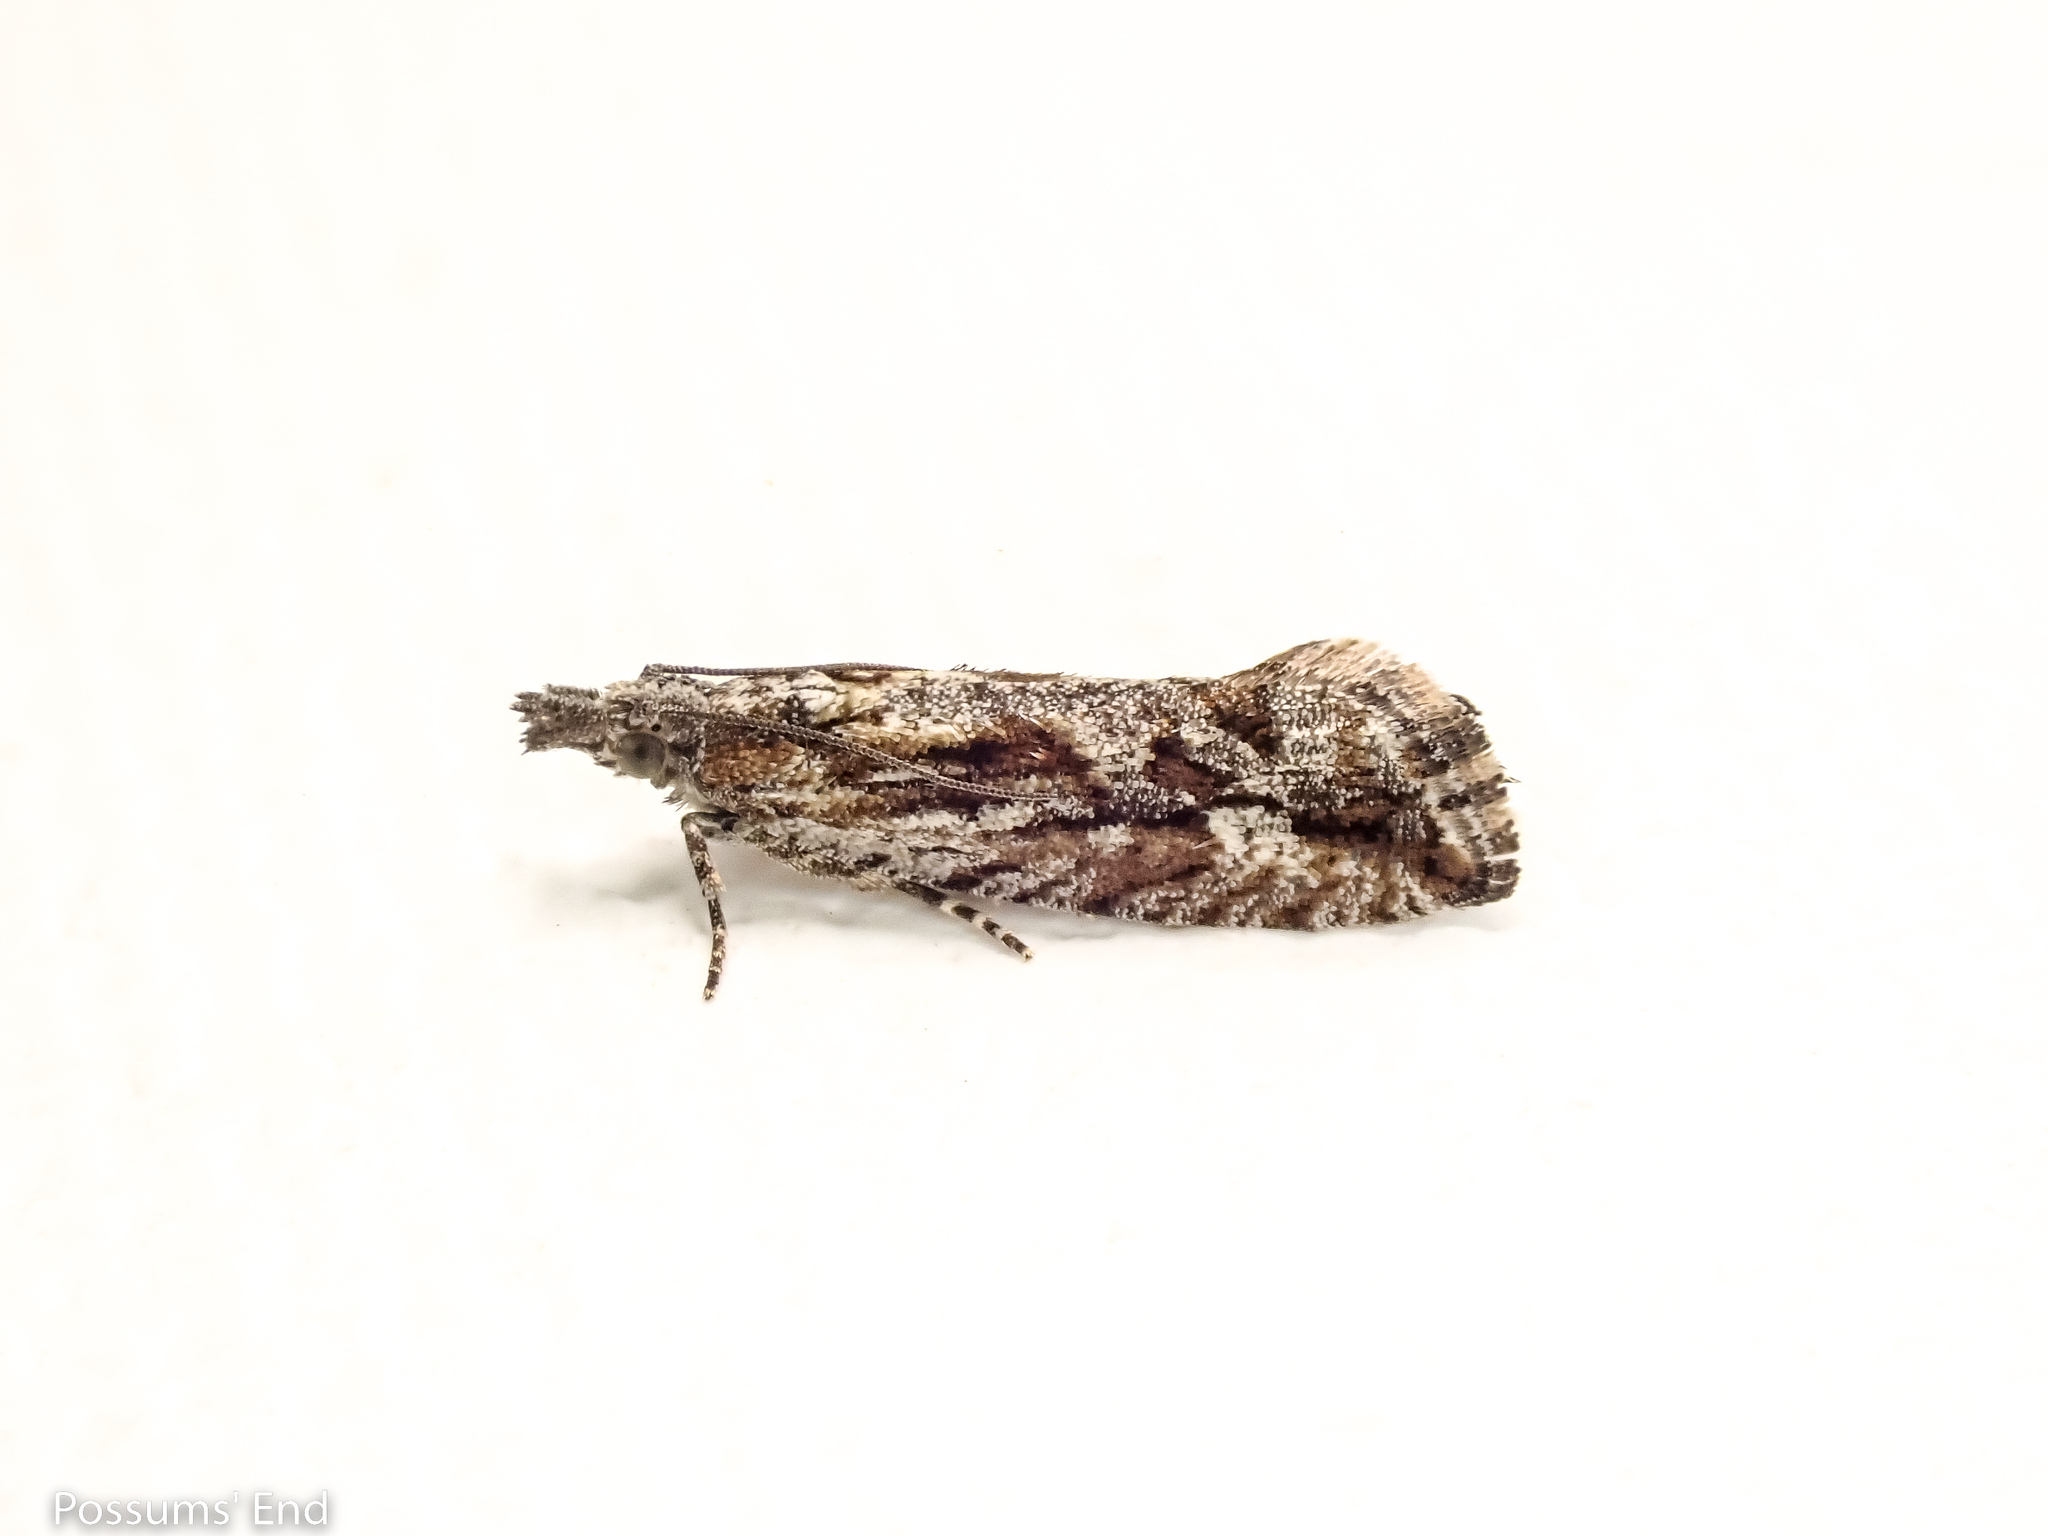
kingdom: Animalia
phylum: Arthropoda
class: Insecta
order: Lepidoptera
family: Tortricidae
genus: Strepsicrates
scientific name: Strepsicrates ejectana
